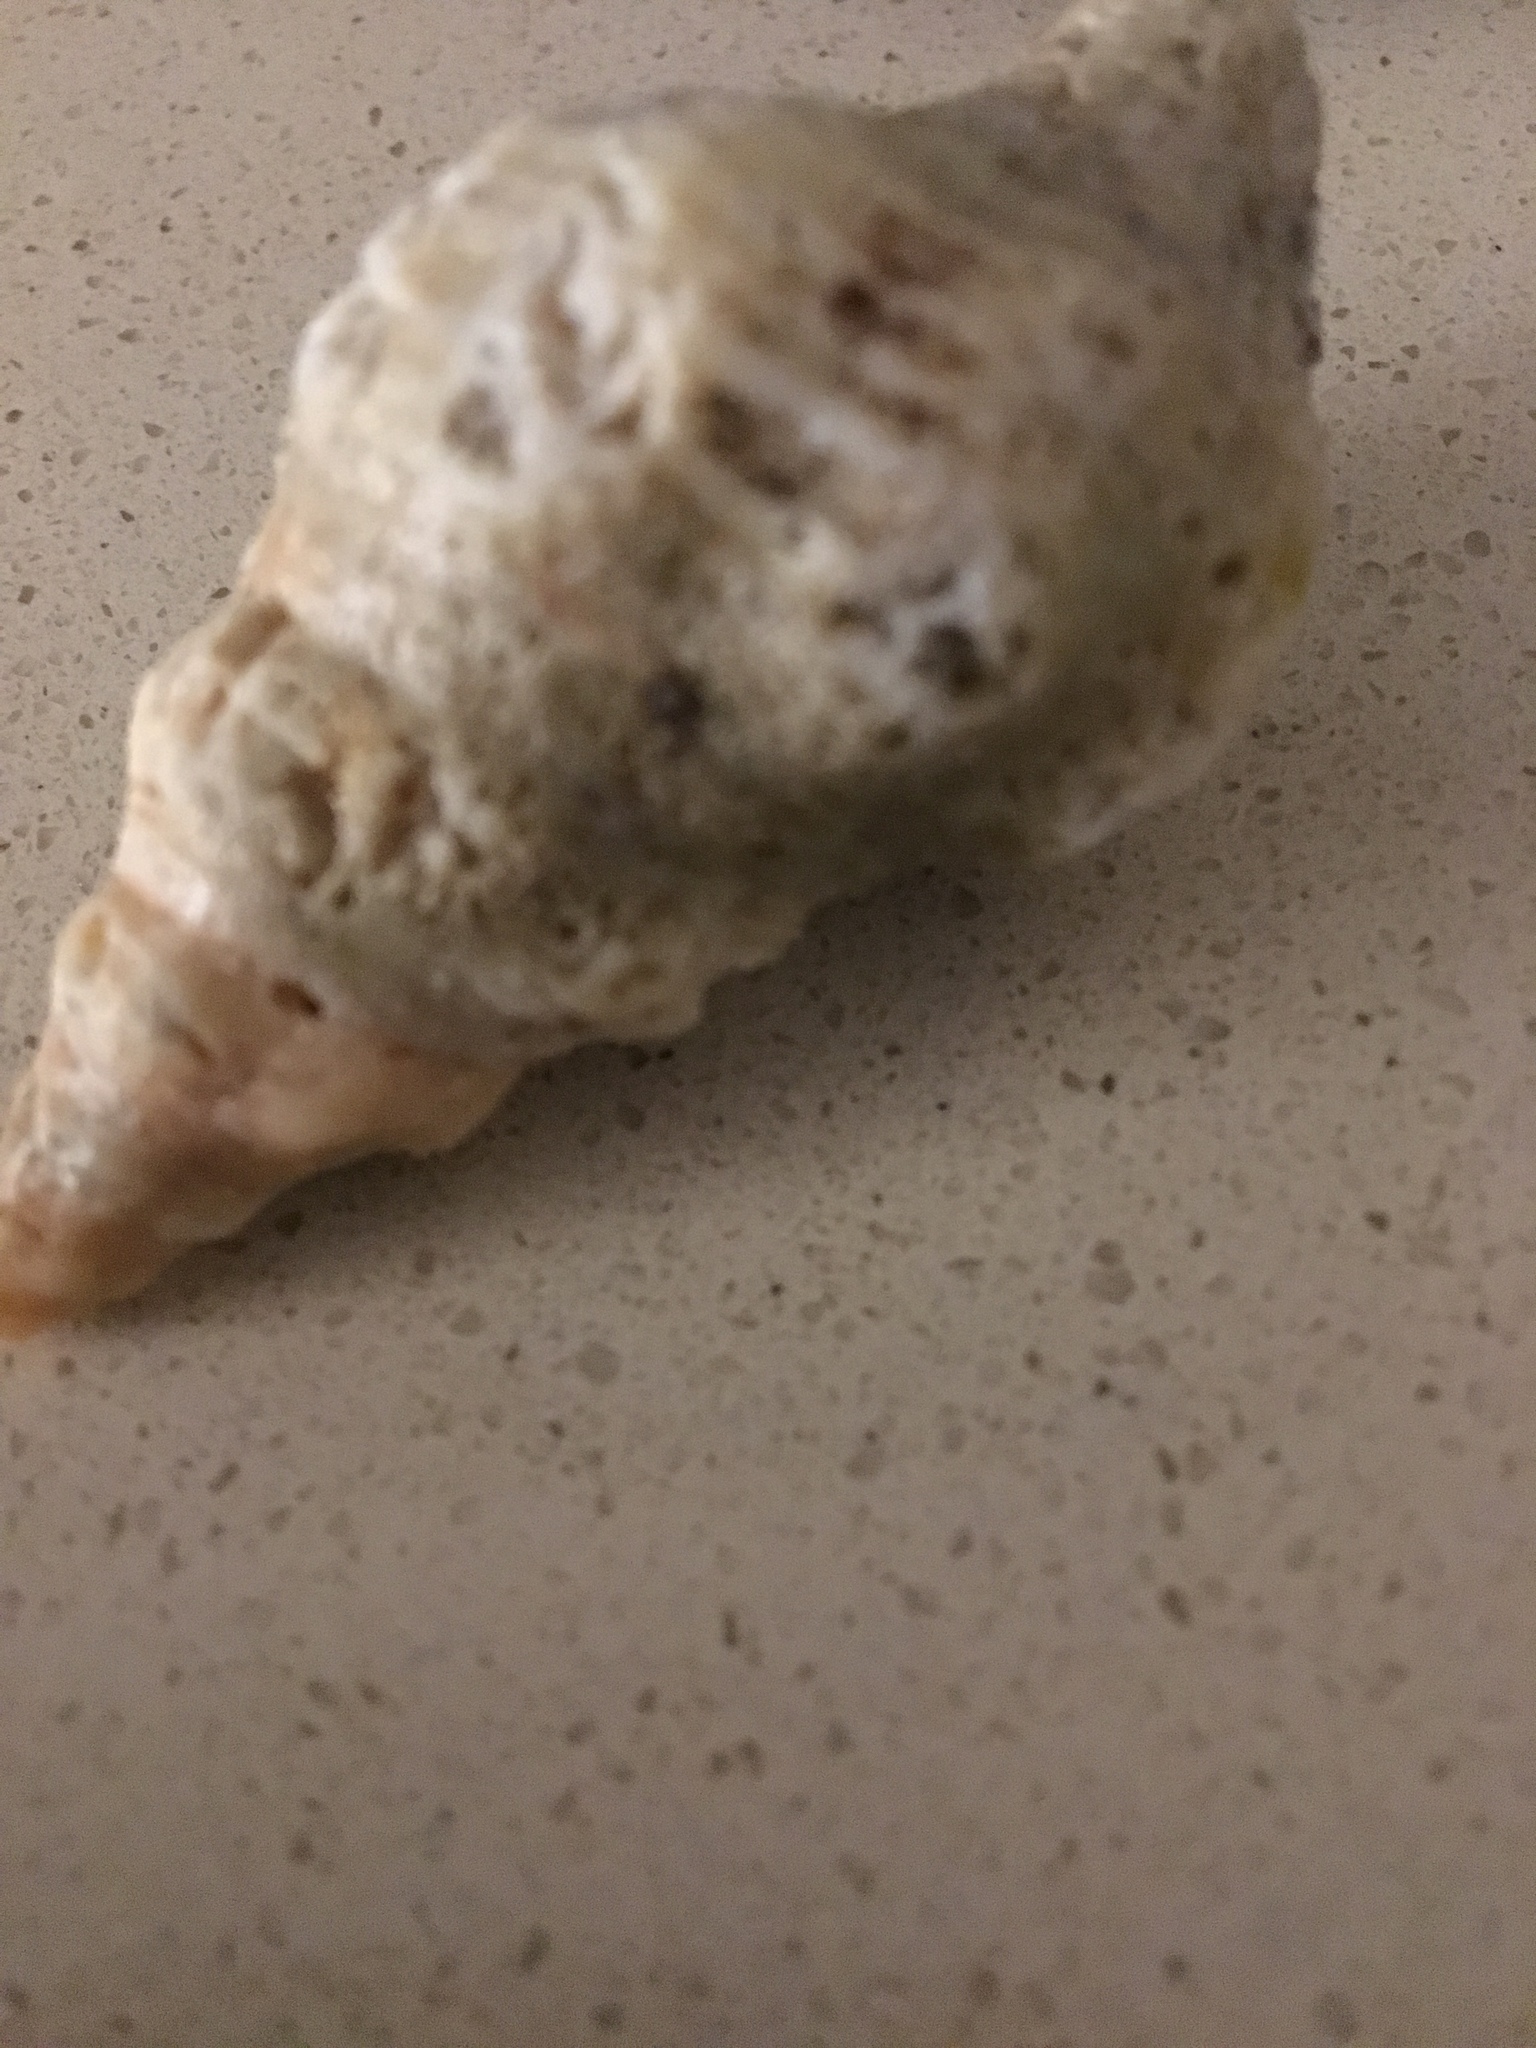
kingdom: Animalia
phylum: Mollusca
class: Gastropoda
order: Neogastropoda
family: Fasciolariidae
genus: Triplofusus
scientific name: Triplofusus giganteus
